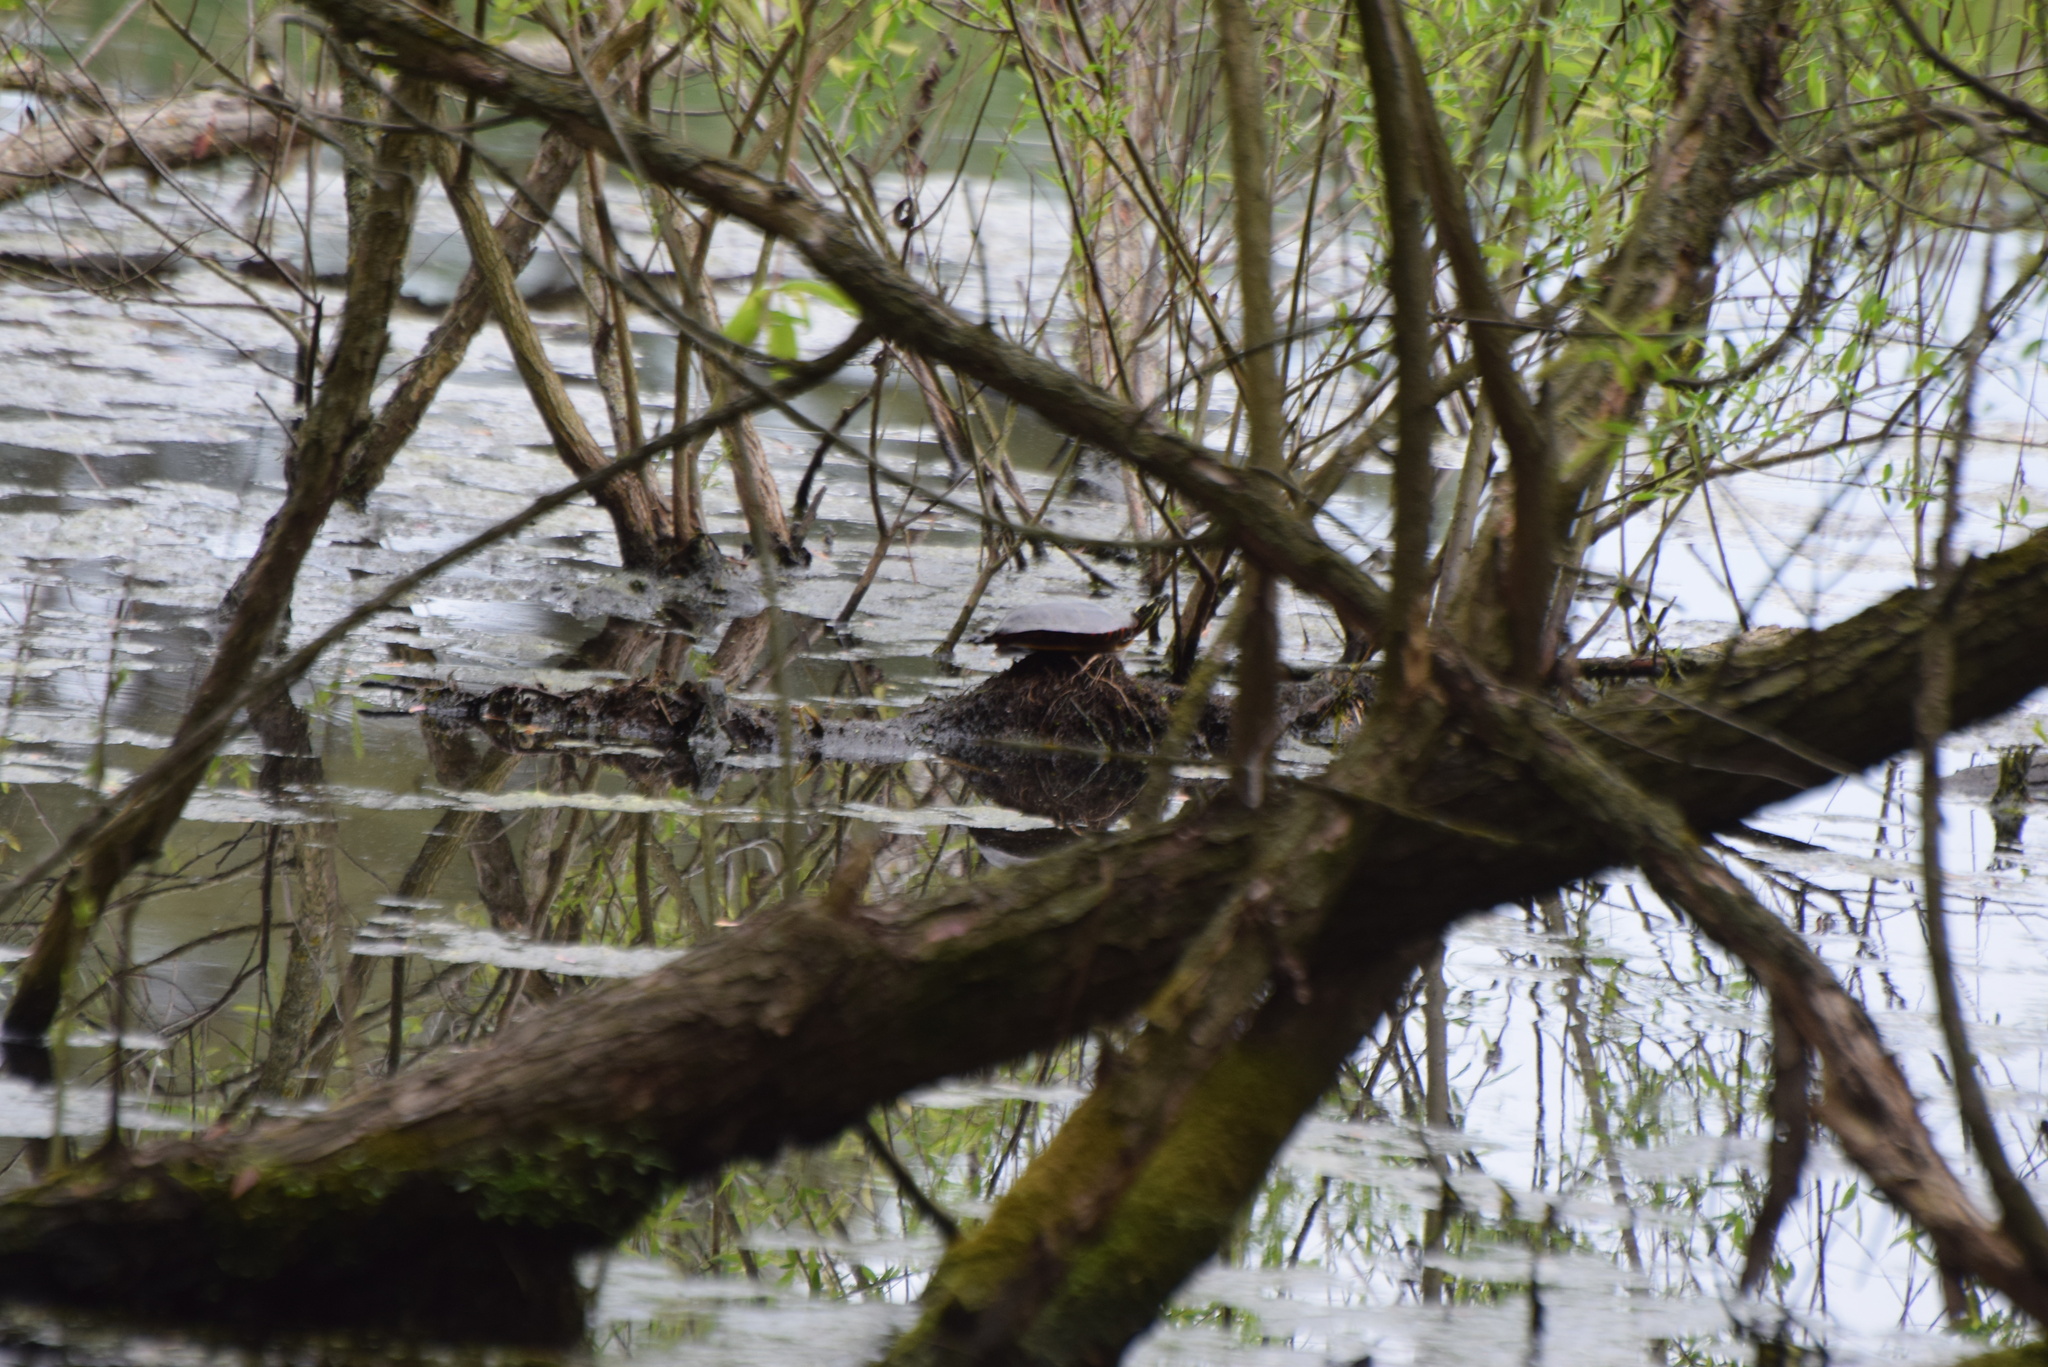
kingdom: Animalia
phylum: Chordata
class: Testudines
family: Emydidae
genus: Chrysemys
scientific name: Chrysemys picta
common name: Painted turtle
